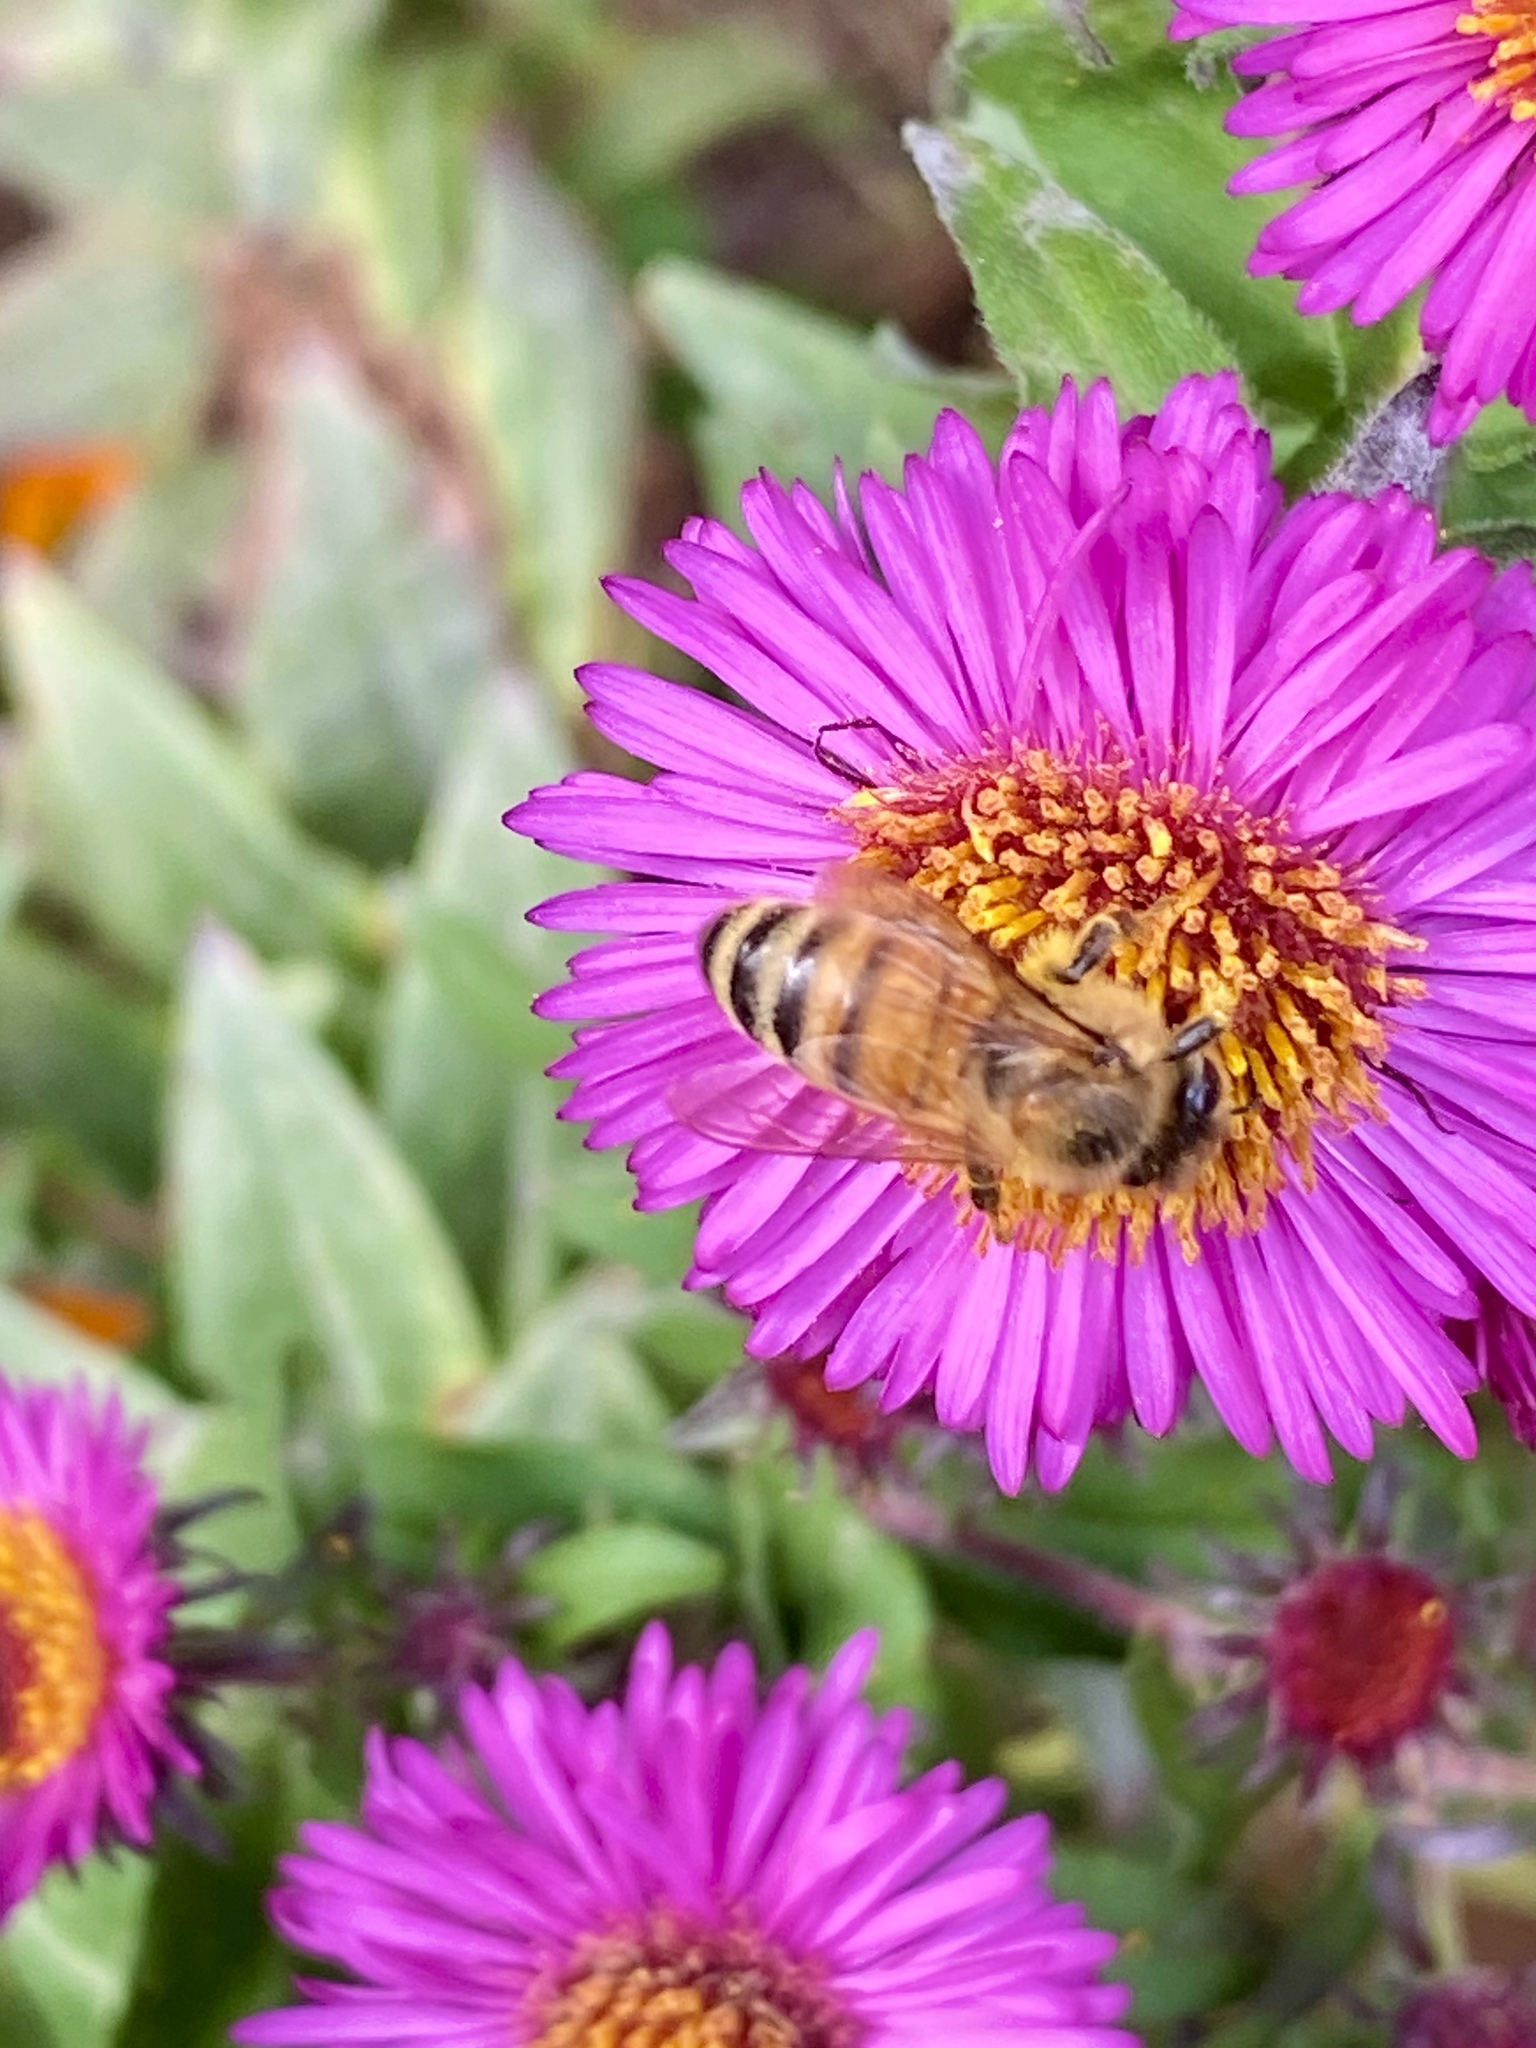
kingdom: Animalia
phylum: Arthropoda
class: Insecta
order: Hymenoptera
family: Apidae
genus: Apis
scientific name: Apis mellifera
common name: Honey bee
